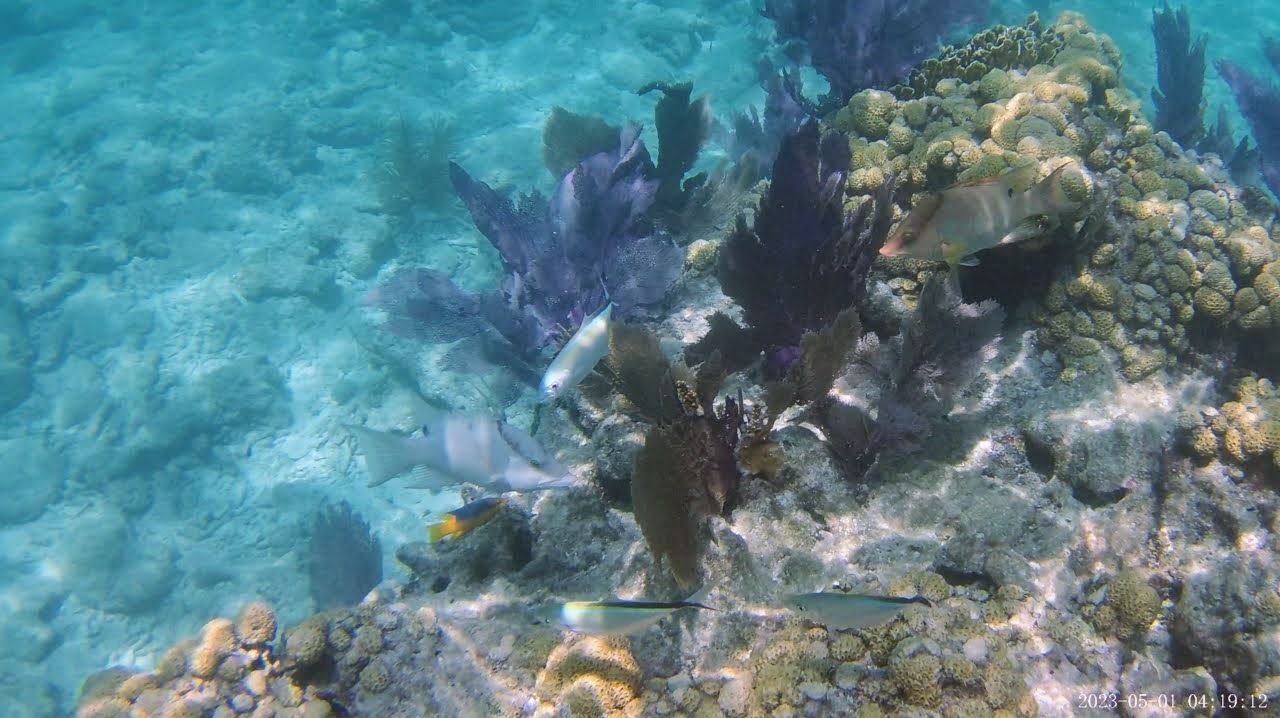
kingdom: Animalia
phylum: Chordata
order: Perciformes
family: Labridae
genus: Lachnolaimus
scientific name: Lachnolaimus maximus
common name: Hogfish
